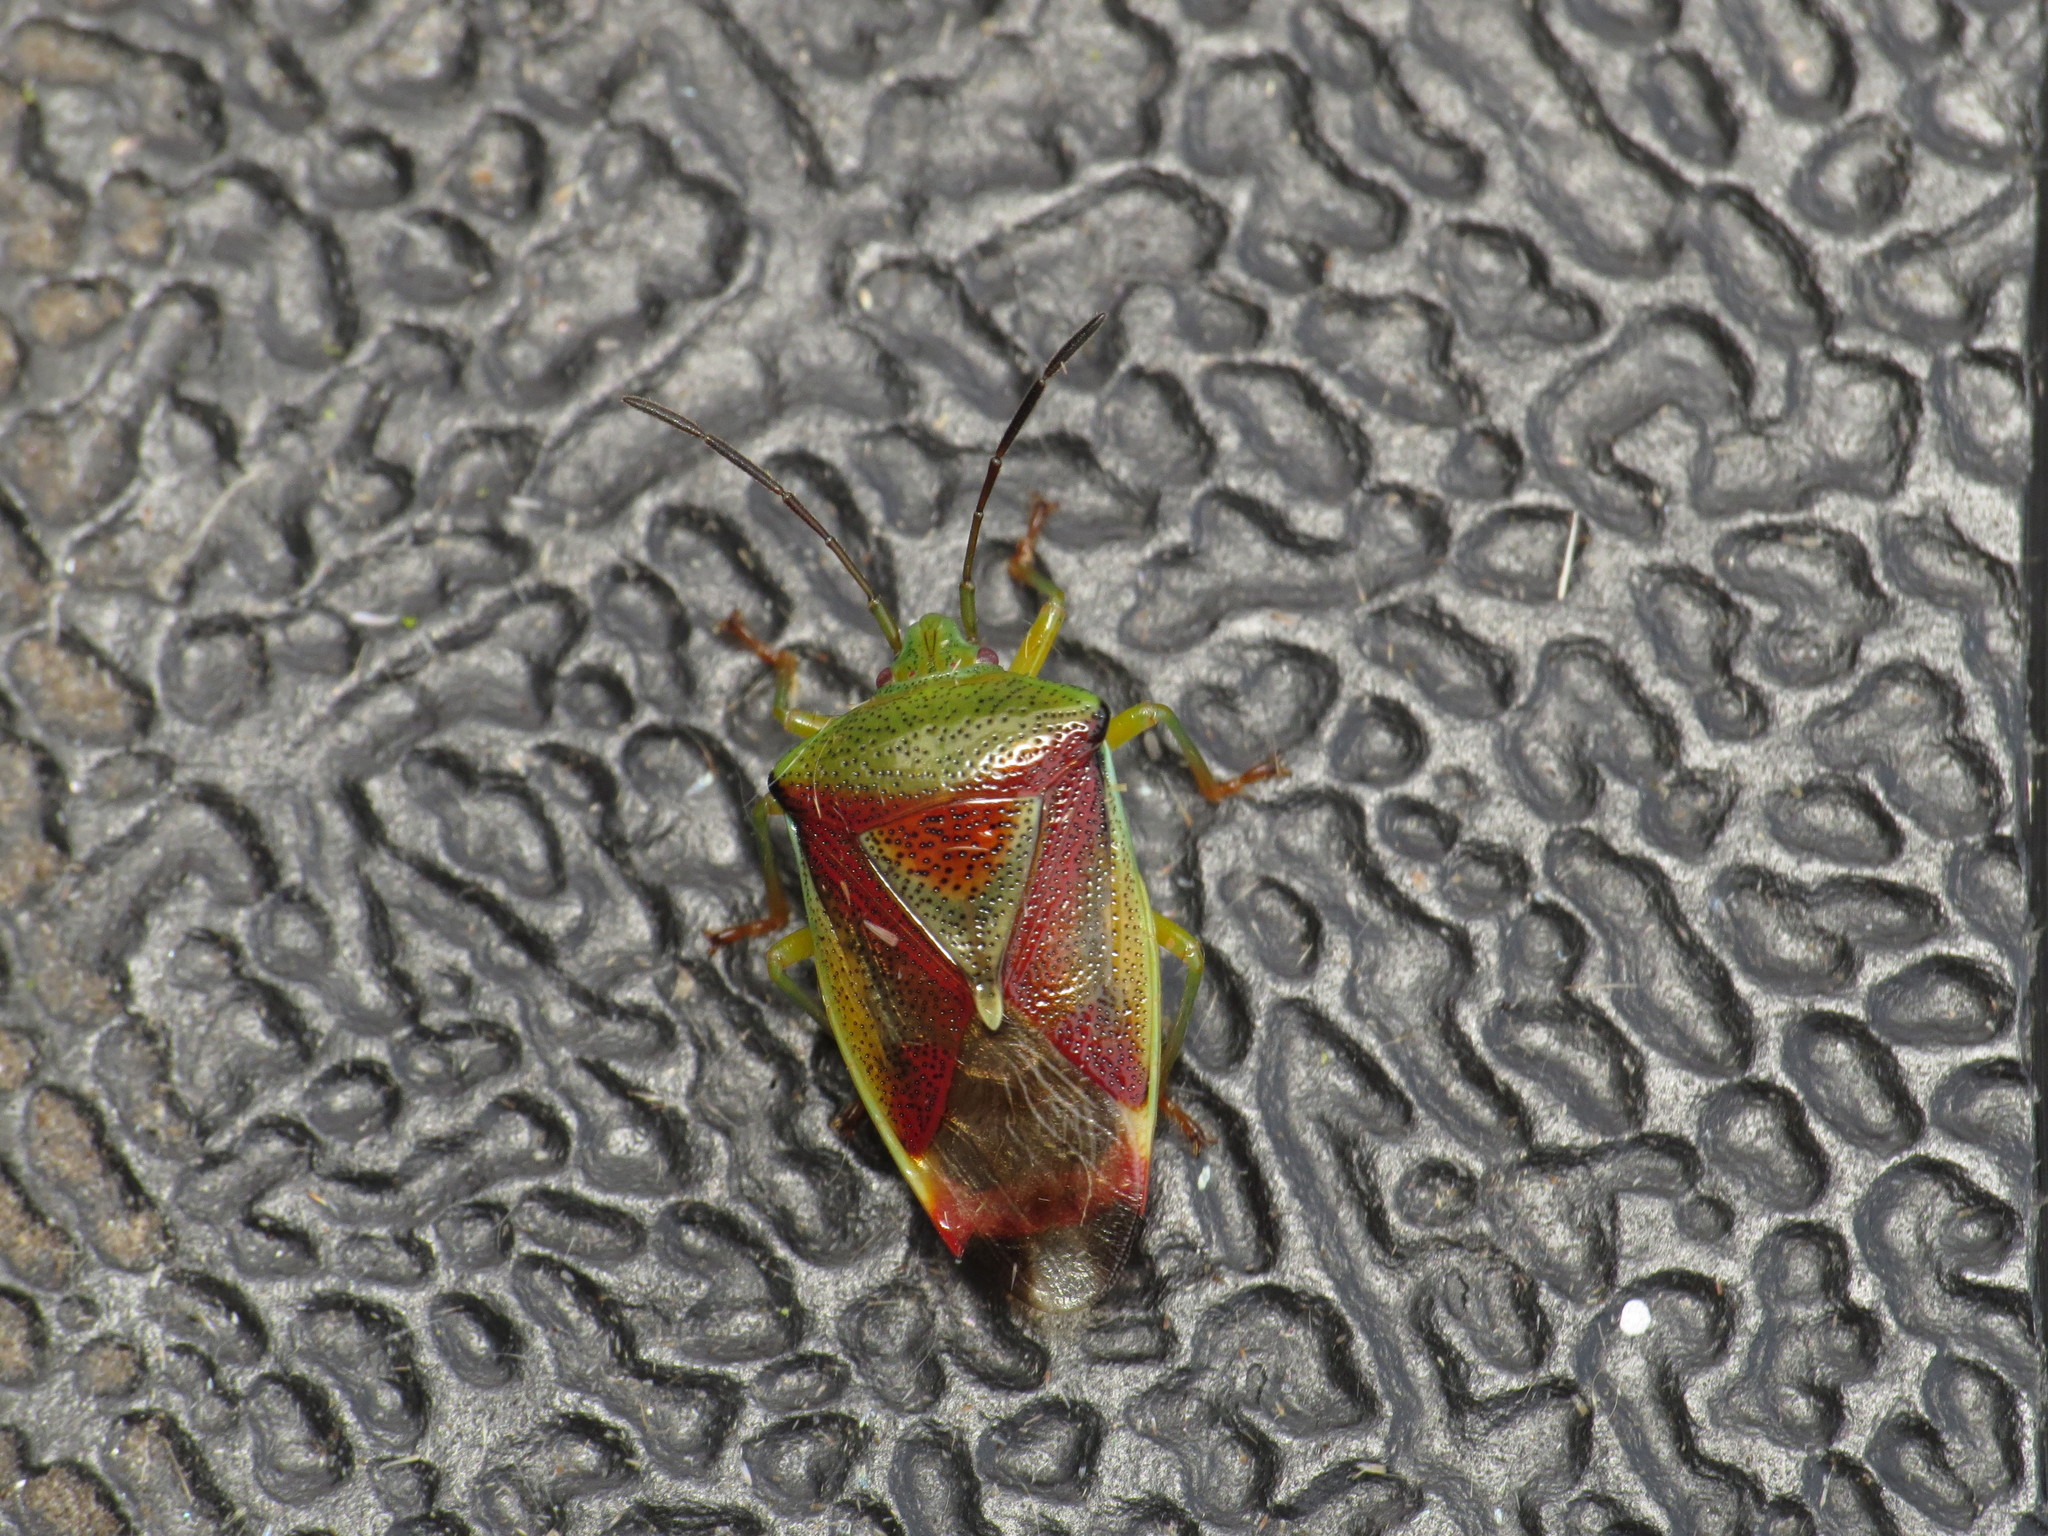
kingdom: Animalia
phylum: Arthropoda
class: Insecta
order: Hemiptera
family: Acanthosomatidae
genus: Elasmostethus
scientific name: Elasmostethus interstinctus
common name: Birch shieldbug
